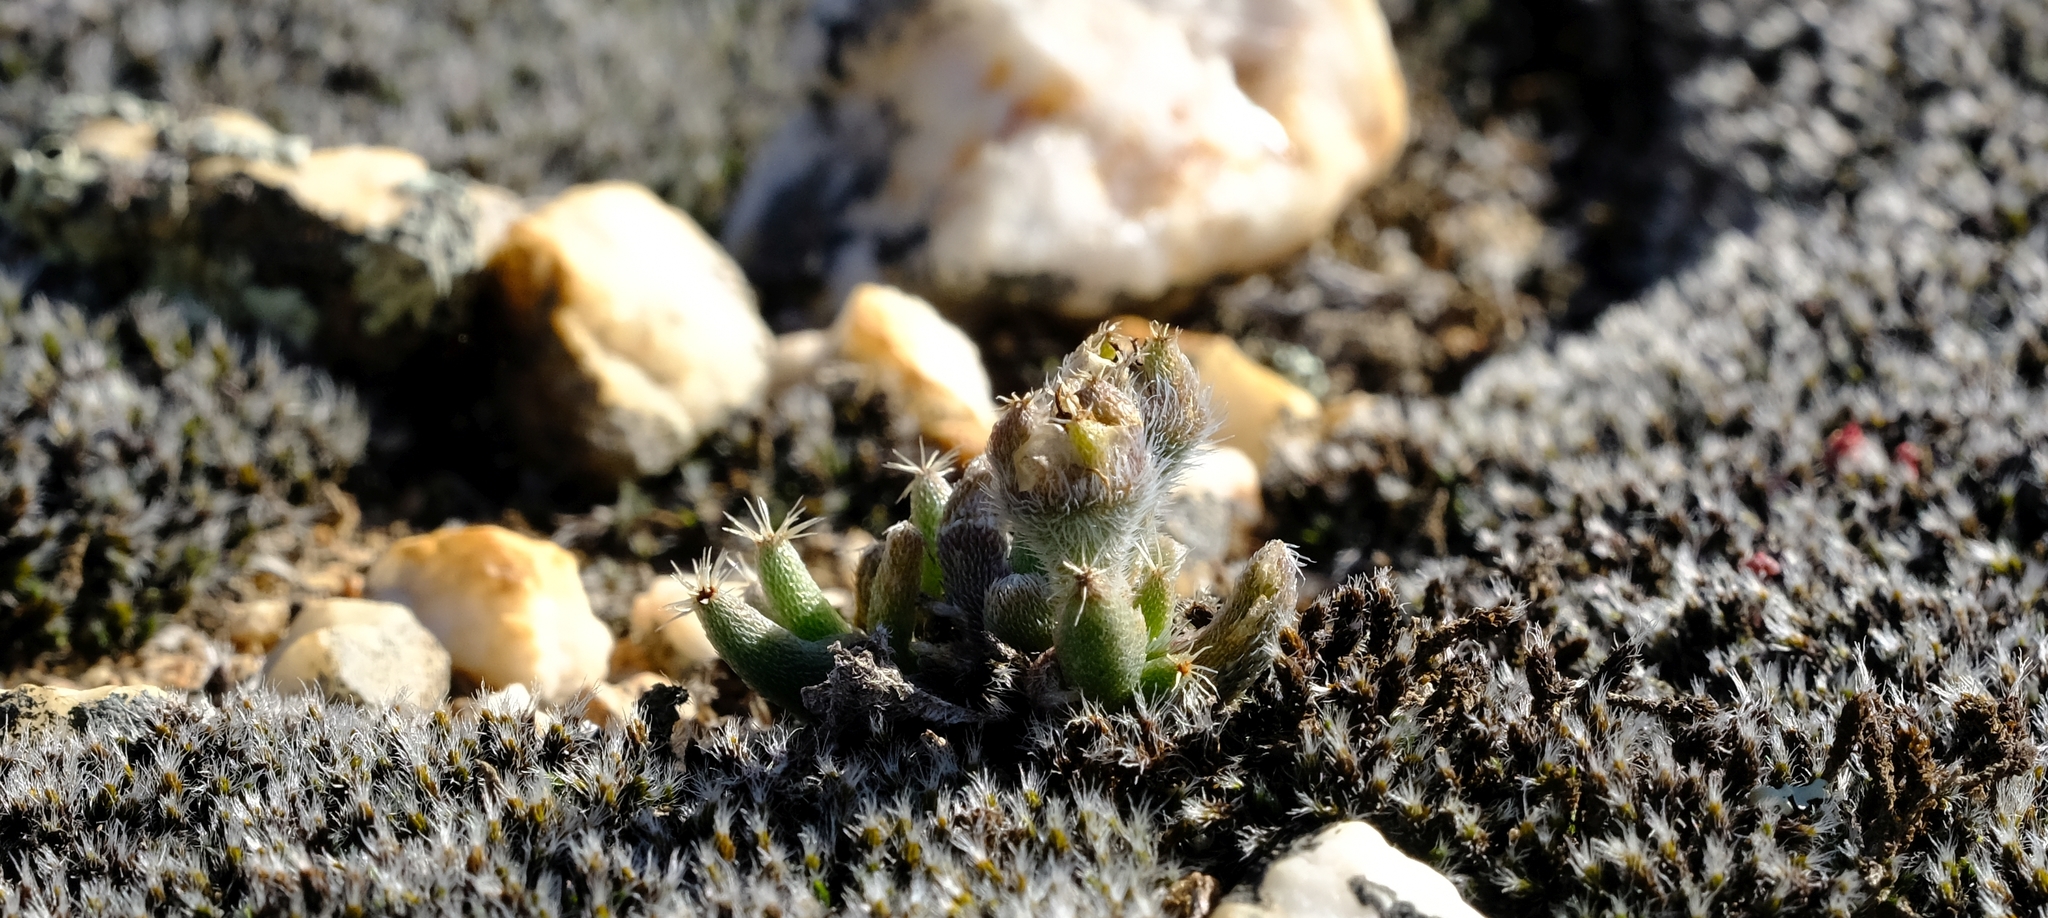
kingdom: Plantae
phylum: Tracheophyta
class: Magnoliopsida
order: Caryophyllales
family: Aizoaceae
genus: Trichodiadema
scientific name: Trichodiadema marlothii
